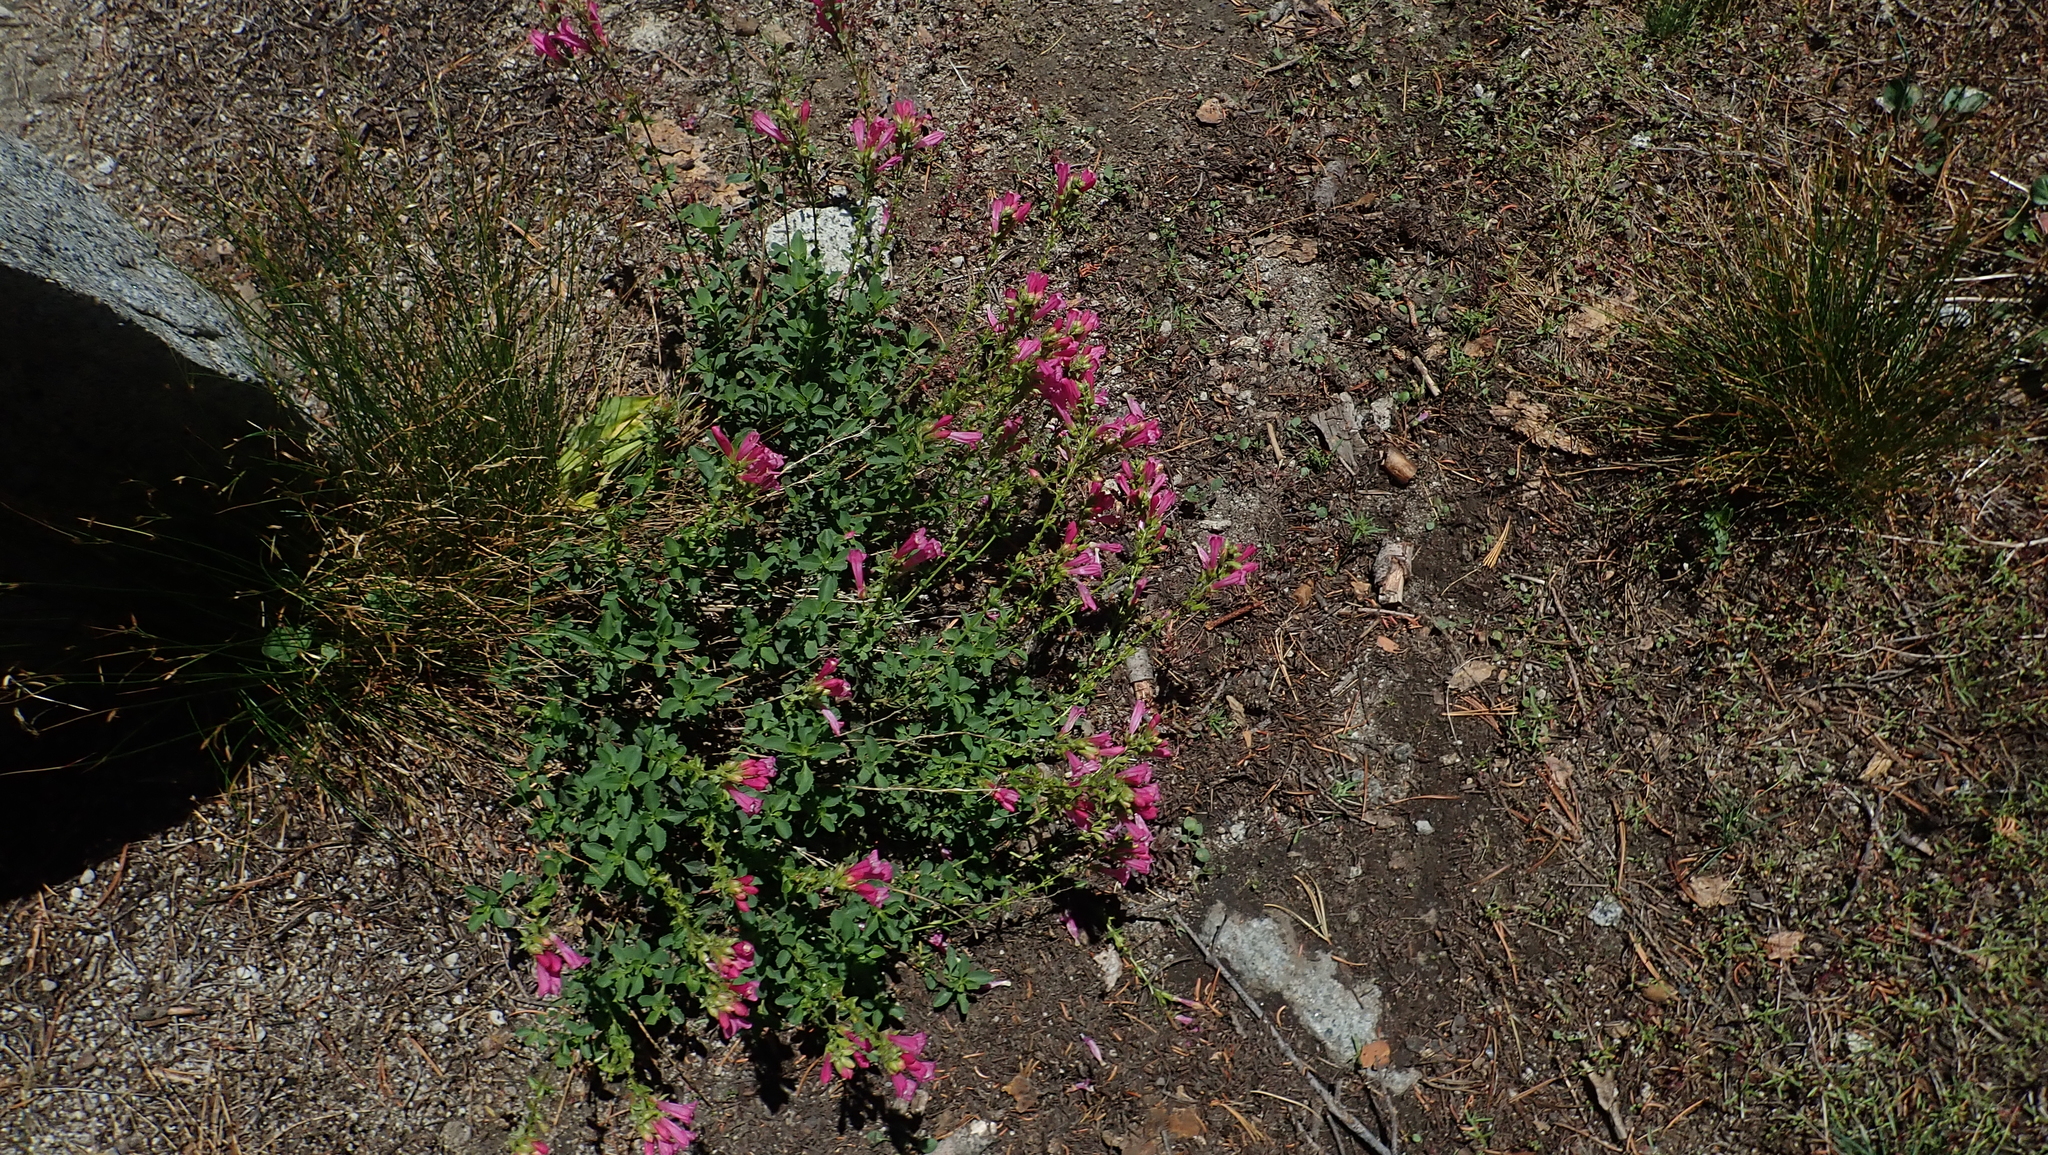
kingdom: Plantae
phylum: Tracheophyta
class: Magnoliopsida
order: Lamiales
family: Plantaginaceae
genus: Penstemon
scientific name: Penstemon newberryi
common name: Mountain-pride
